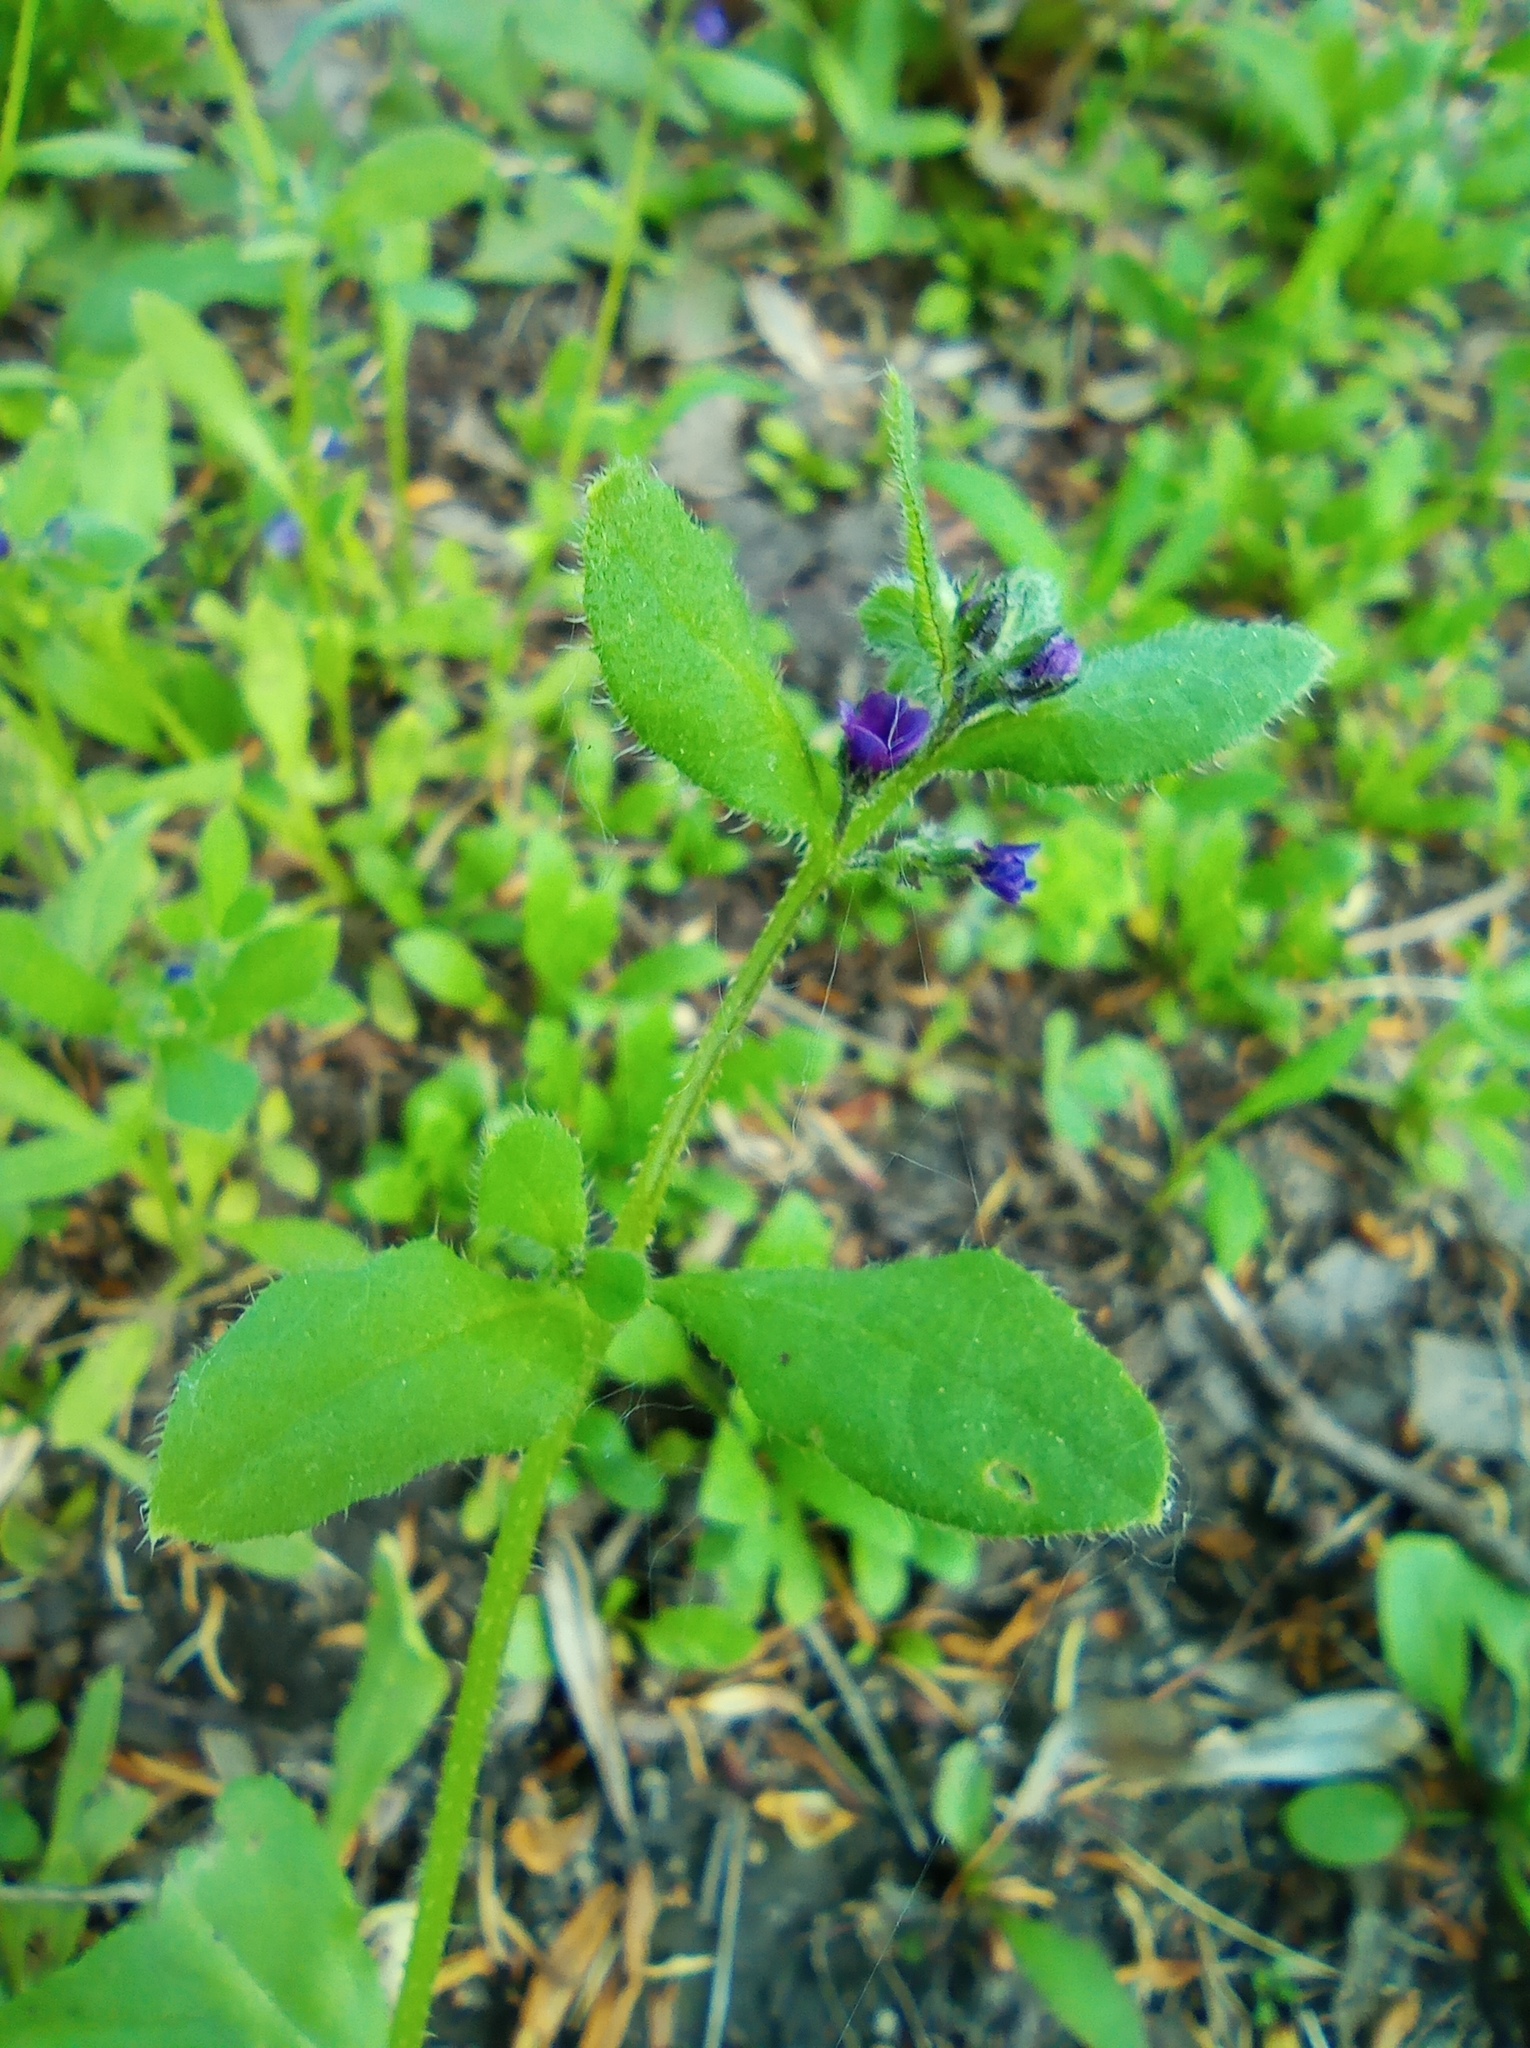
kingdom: Plantae
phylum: Tracheophyta
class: Magnoliopsida
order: Boraginales
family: Boraginaceae
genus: Asperugo
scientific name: Asperugo procumbens
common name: Madwort
